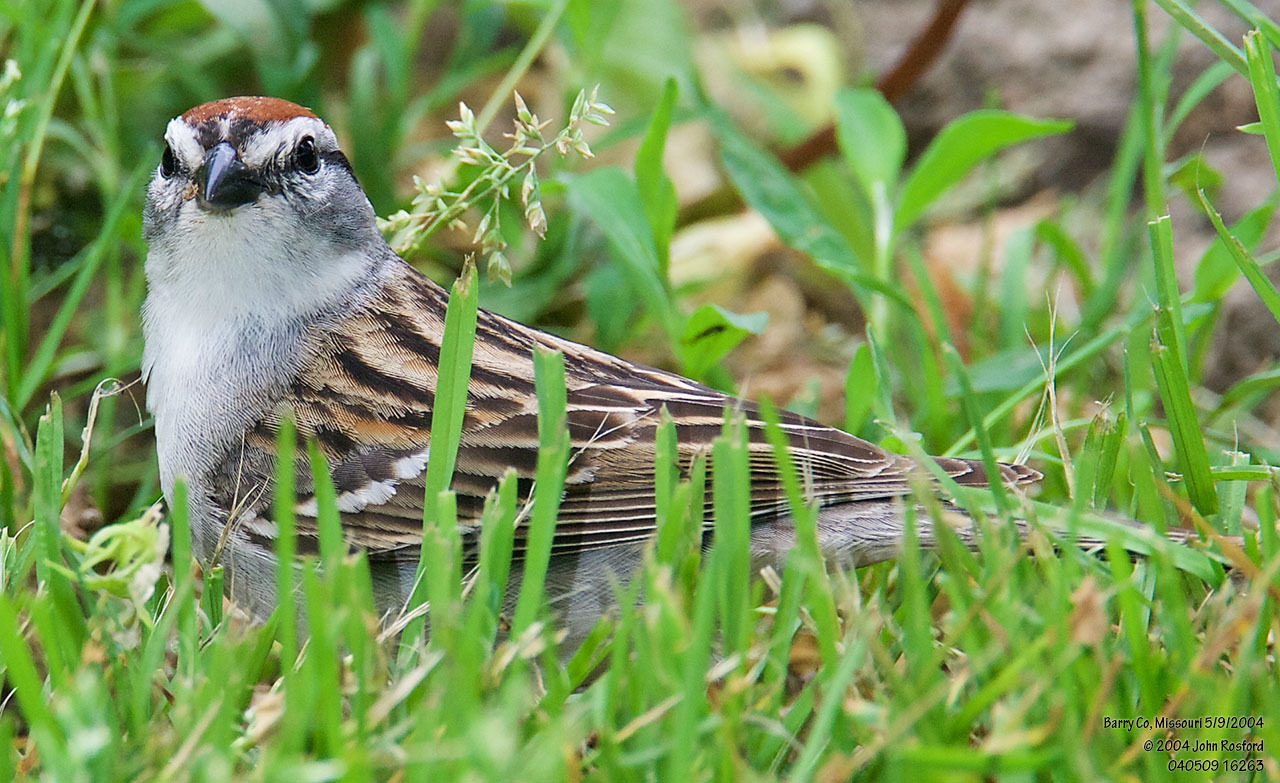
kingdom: Animalia
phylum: Chordata
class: Aves
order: Passeriformes
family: Passerellidae
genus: Spizella
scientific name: Spizella passerina
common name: Chipping sparrow
